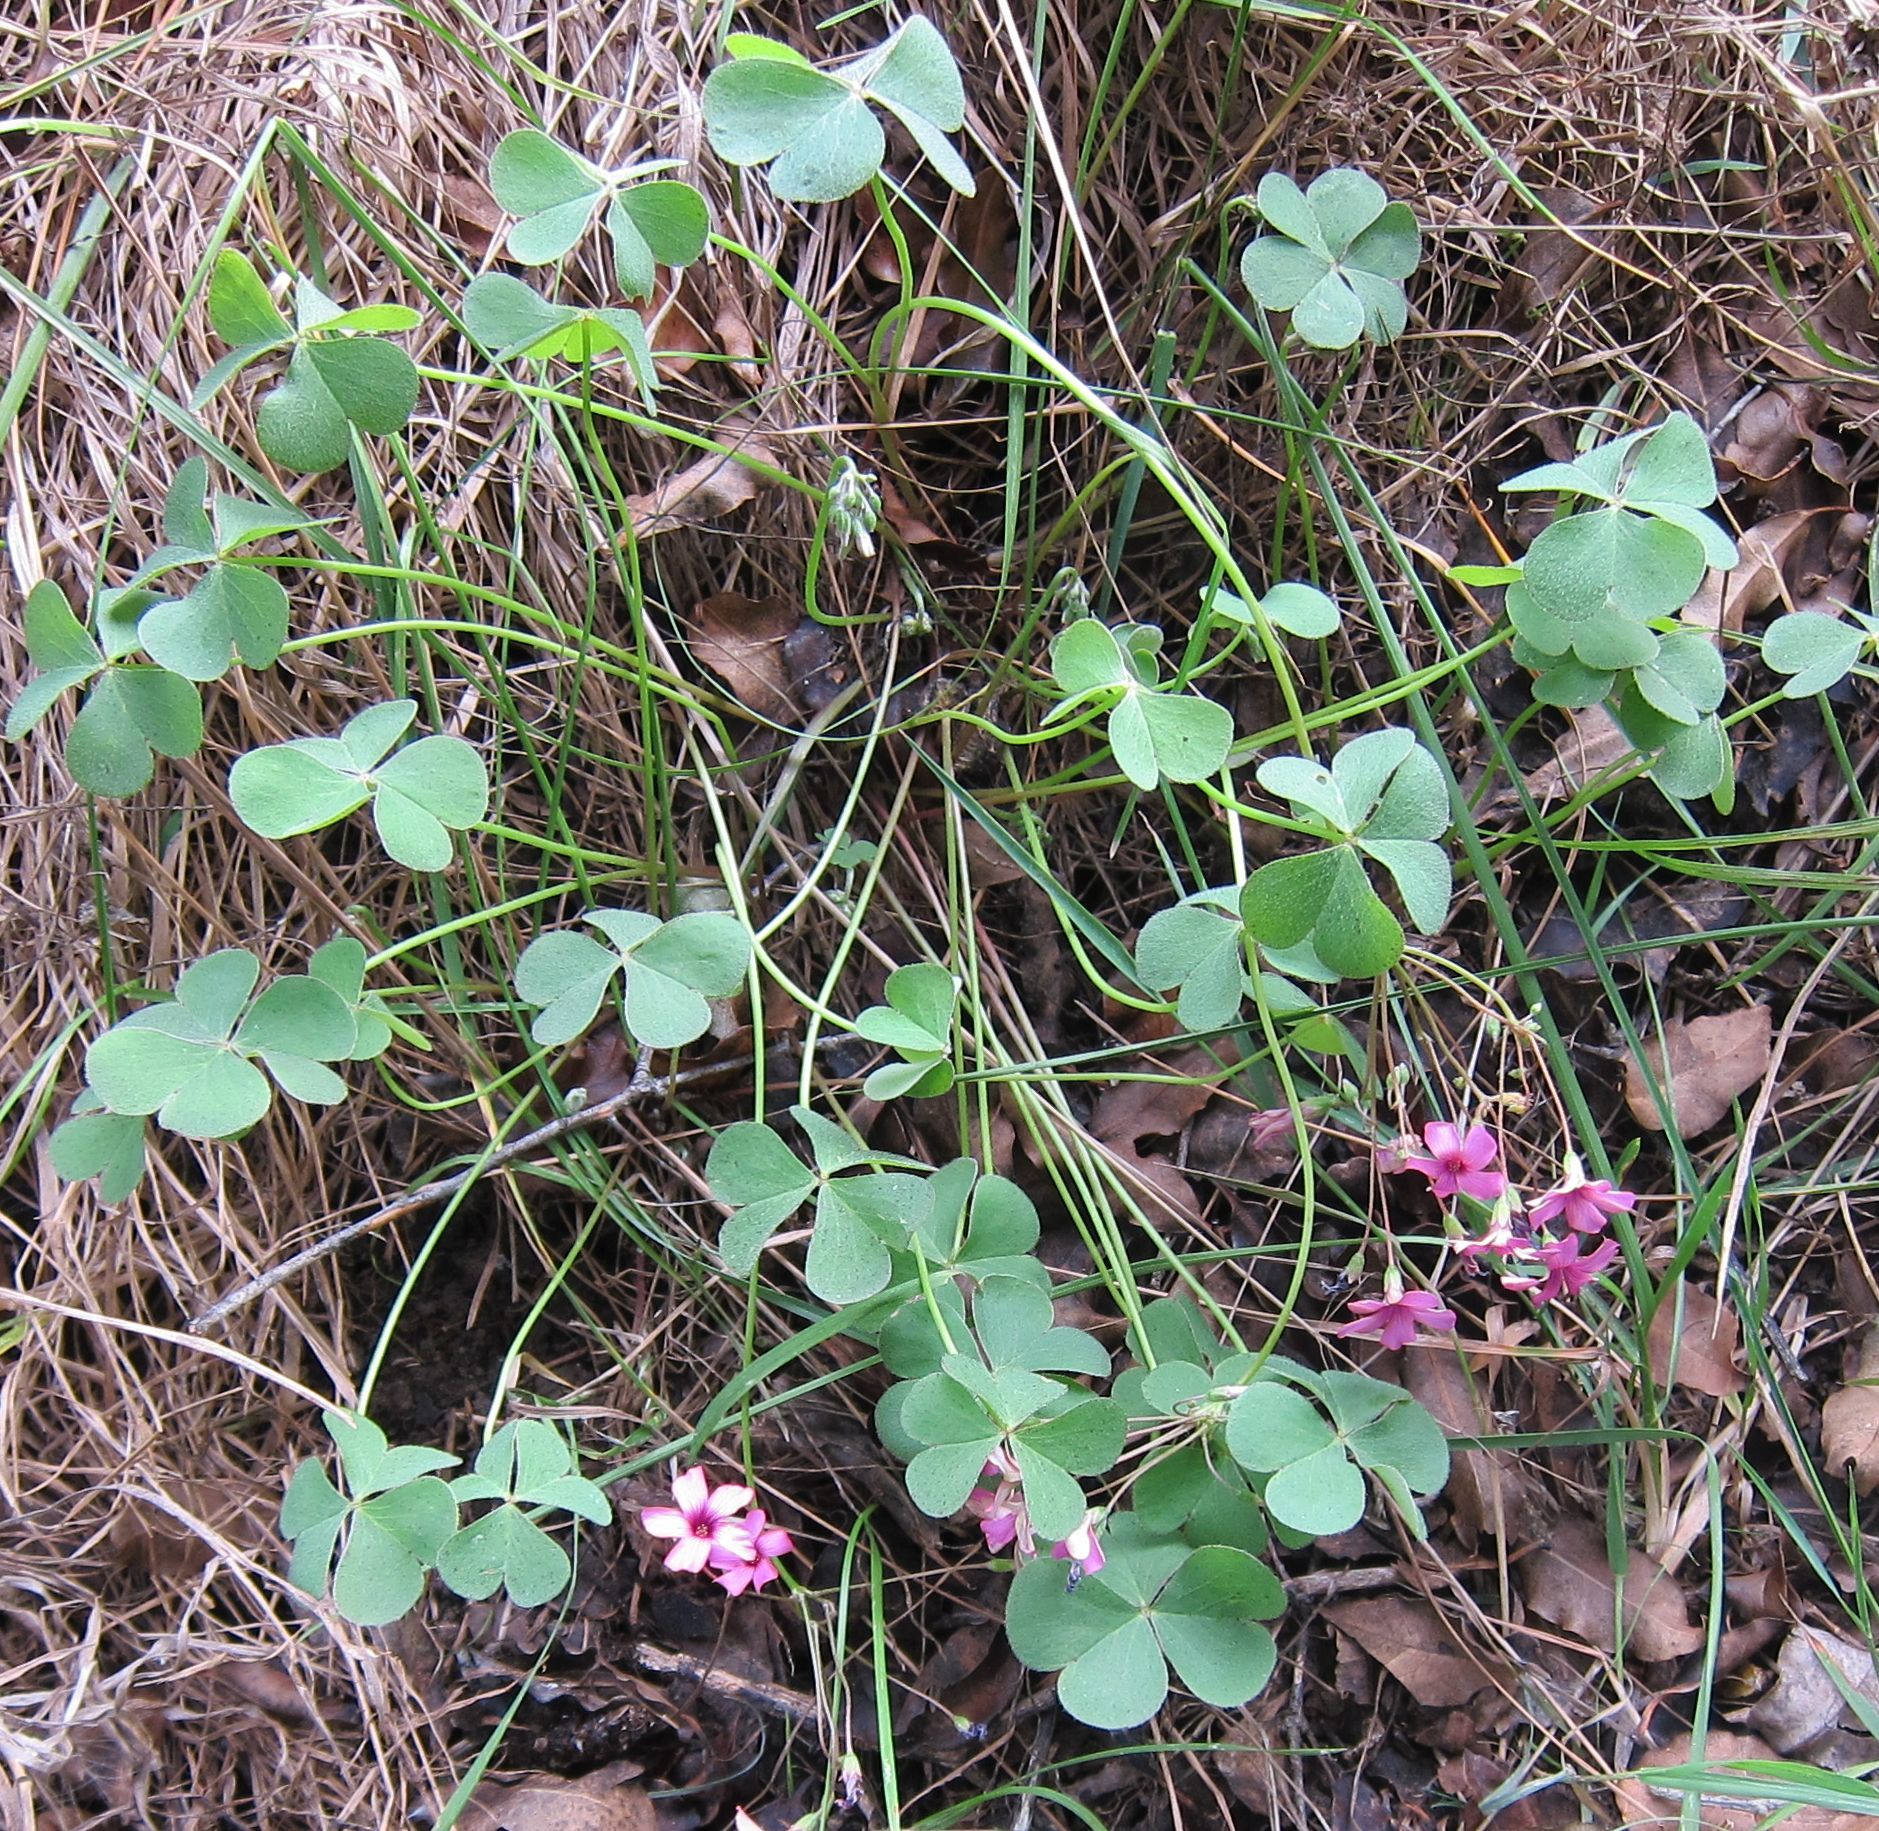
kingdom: Plantae
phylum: Tracheophyta
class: Magnoliopsida
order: Oxalidales
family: Oxalidaceae
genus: Oxalis
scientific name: Oxalis articulata
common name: Pink-sorrel
